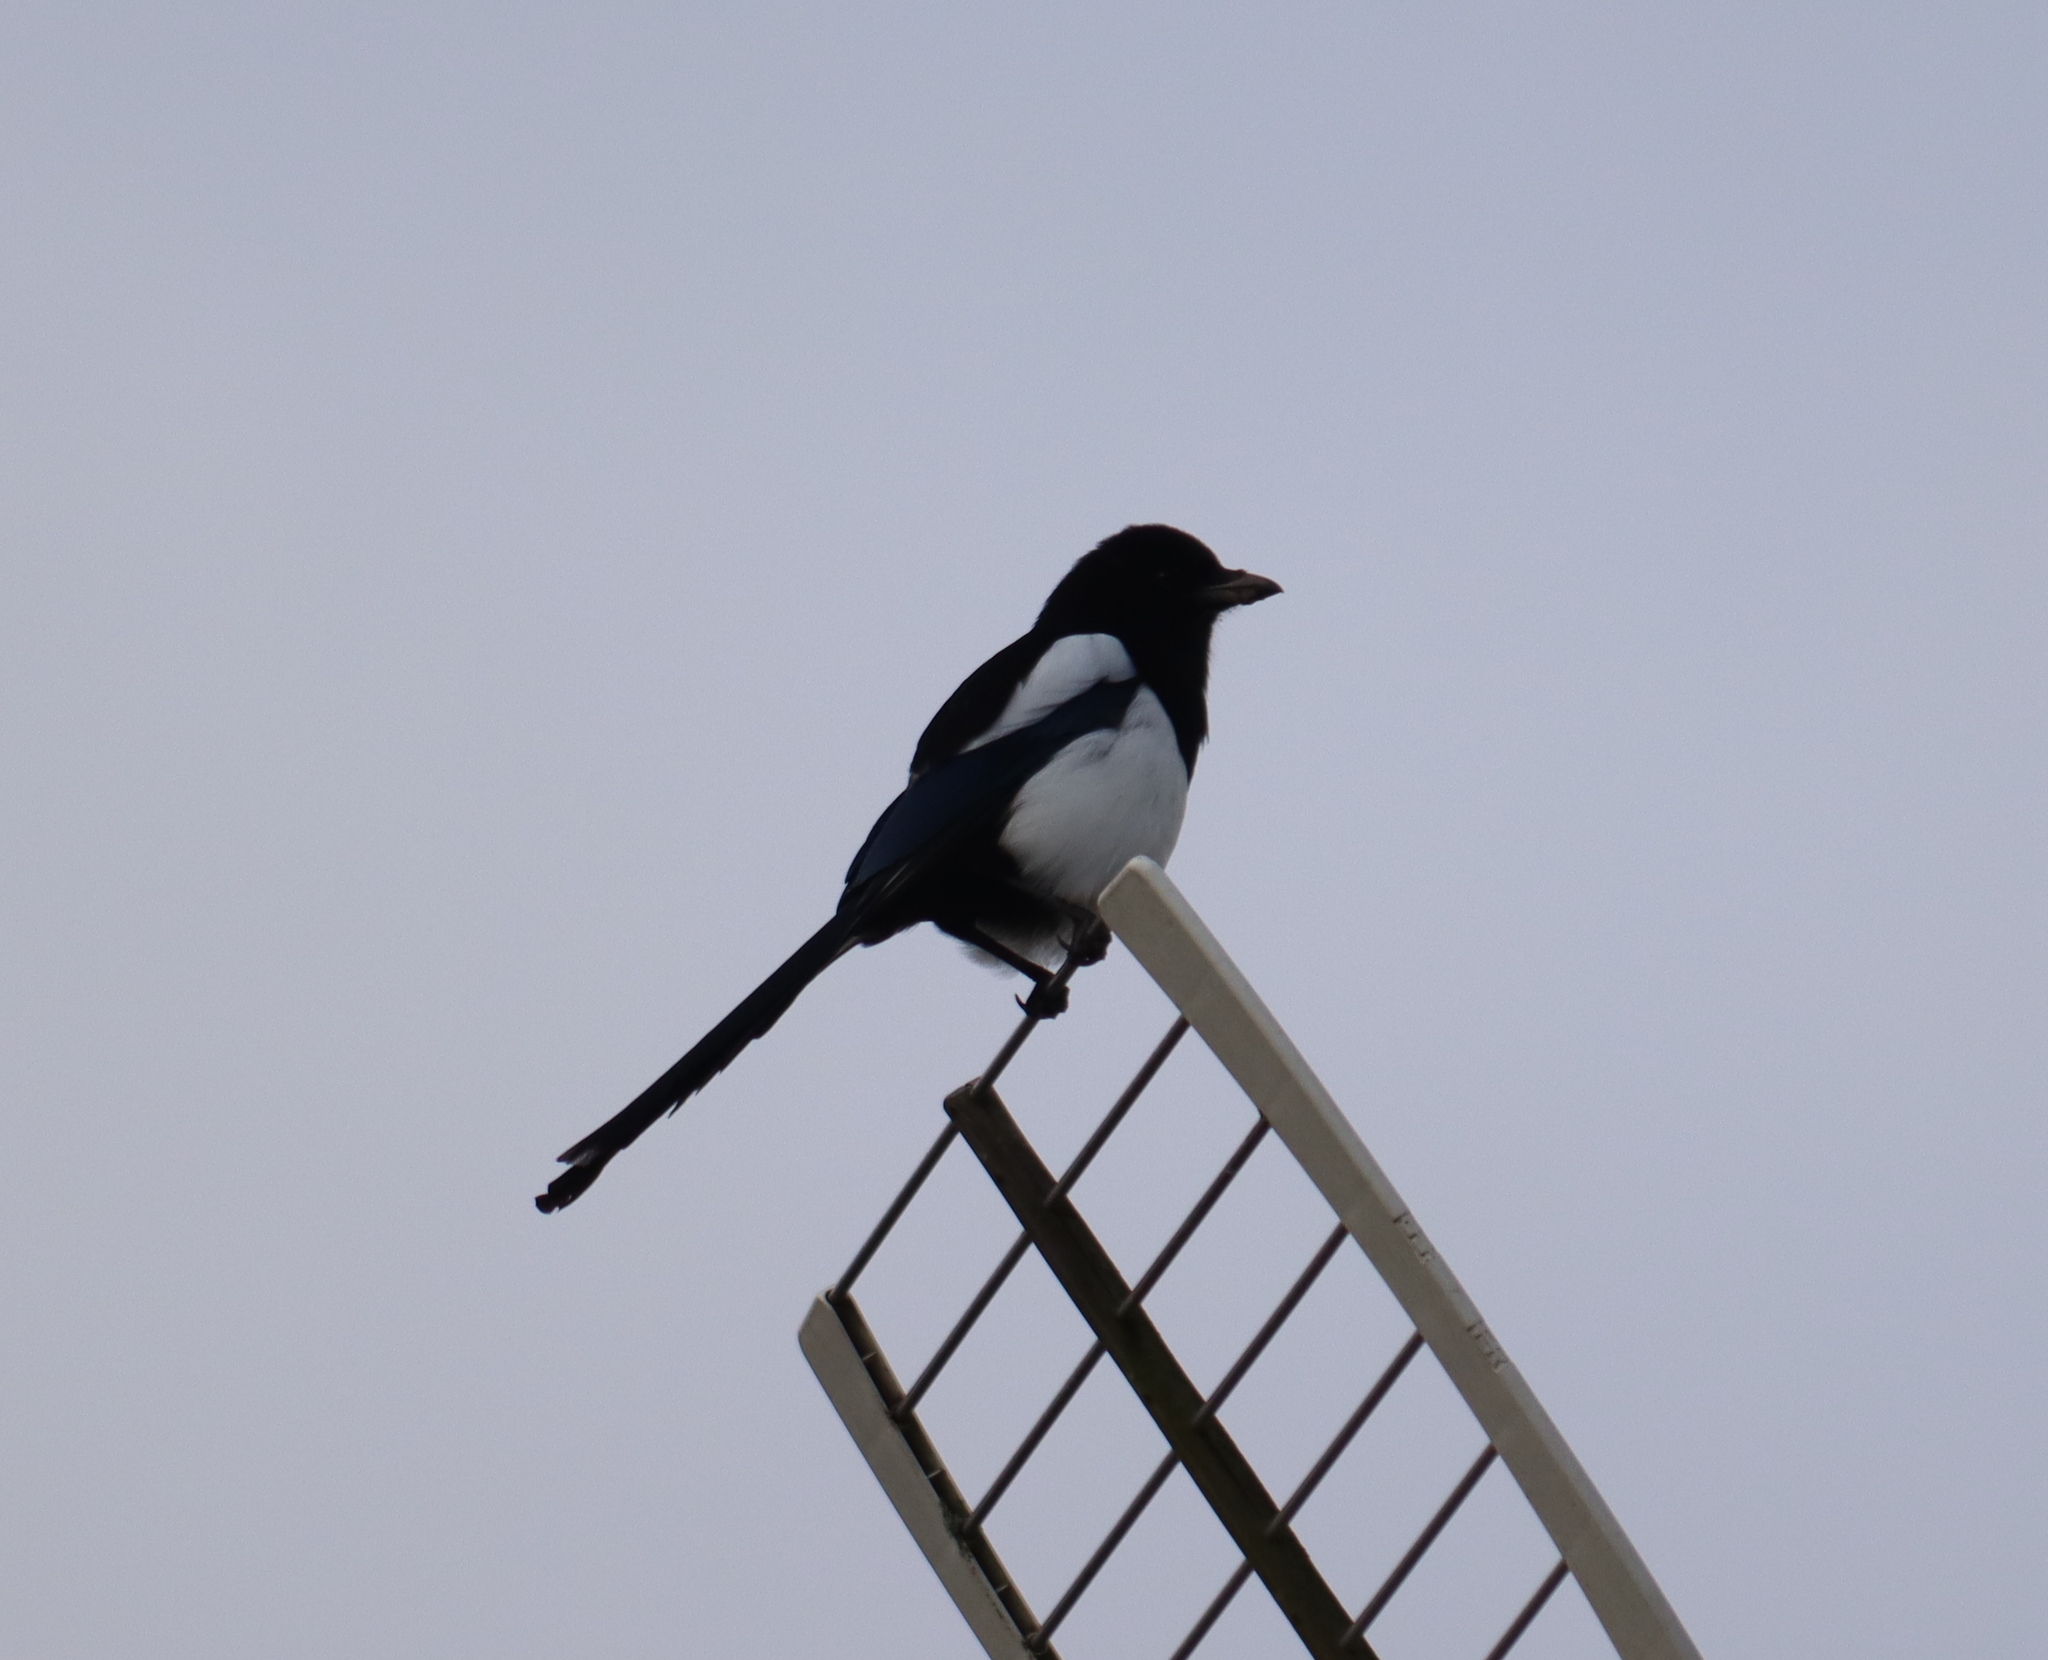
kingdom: Animalia
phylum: Chordata
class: Aves
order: Passeriformes
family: Corvidae
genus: Pica
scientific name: Pica pica
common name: Eurasian magpie
